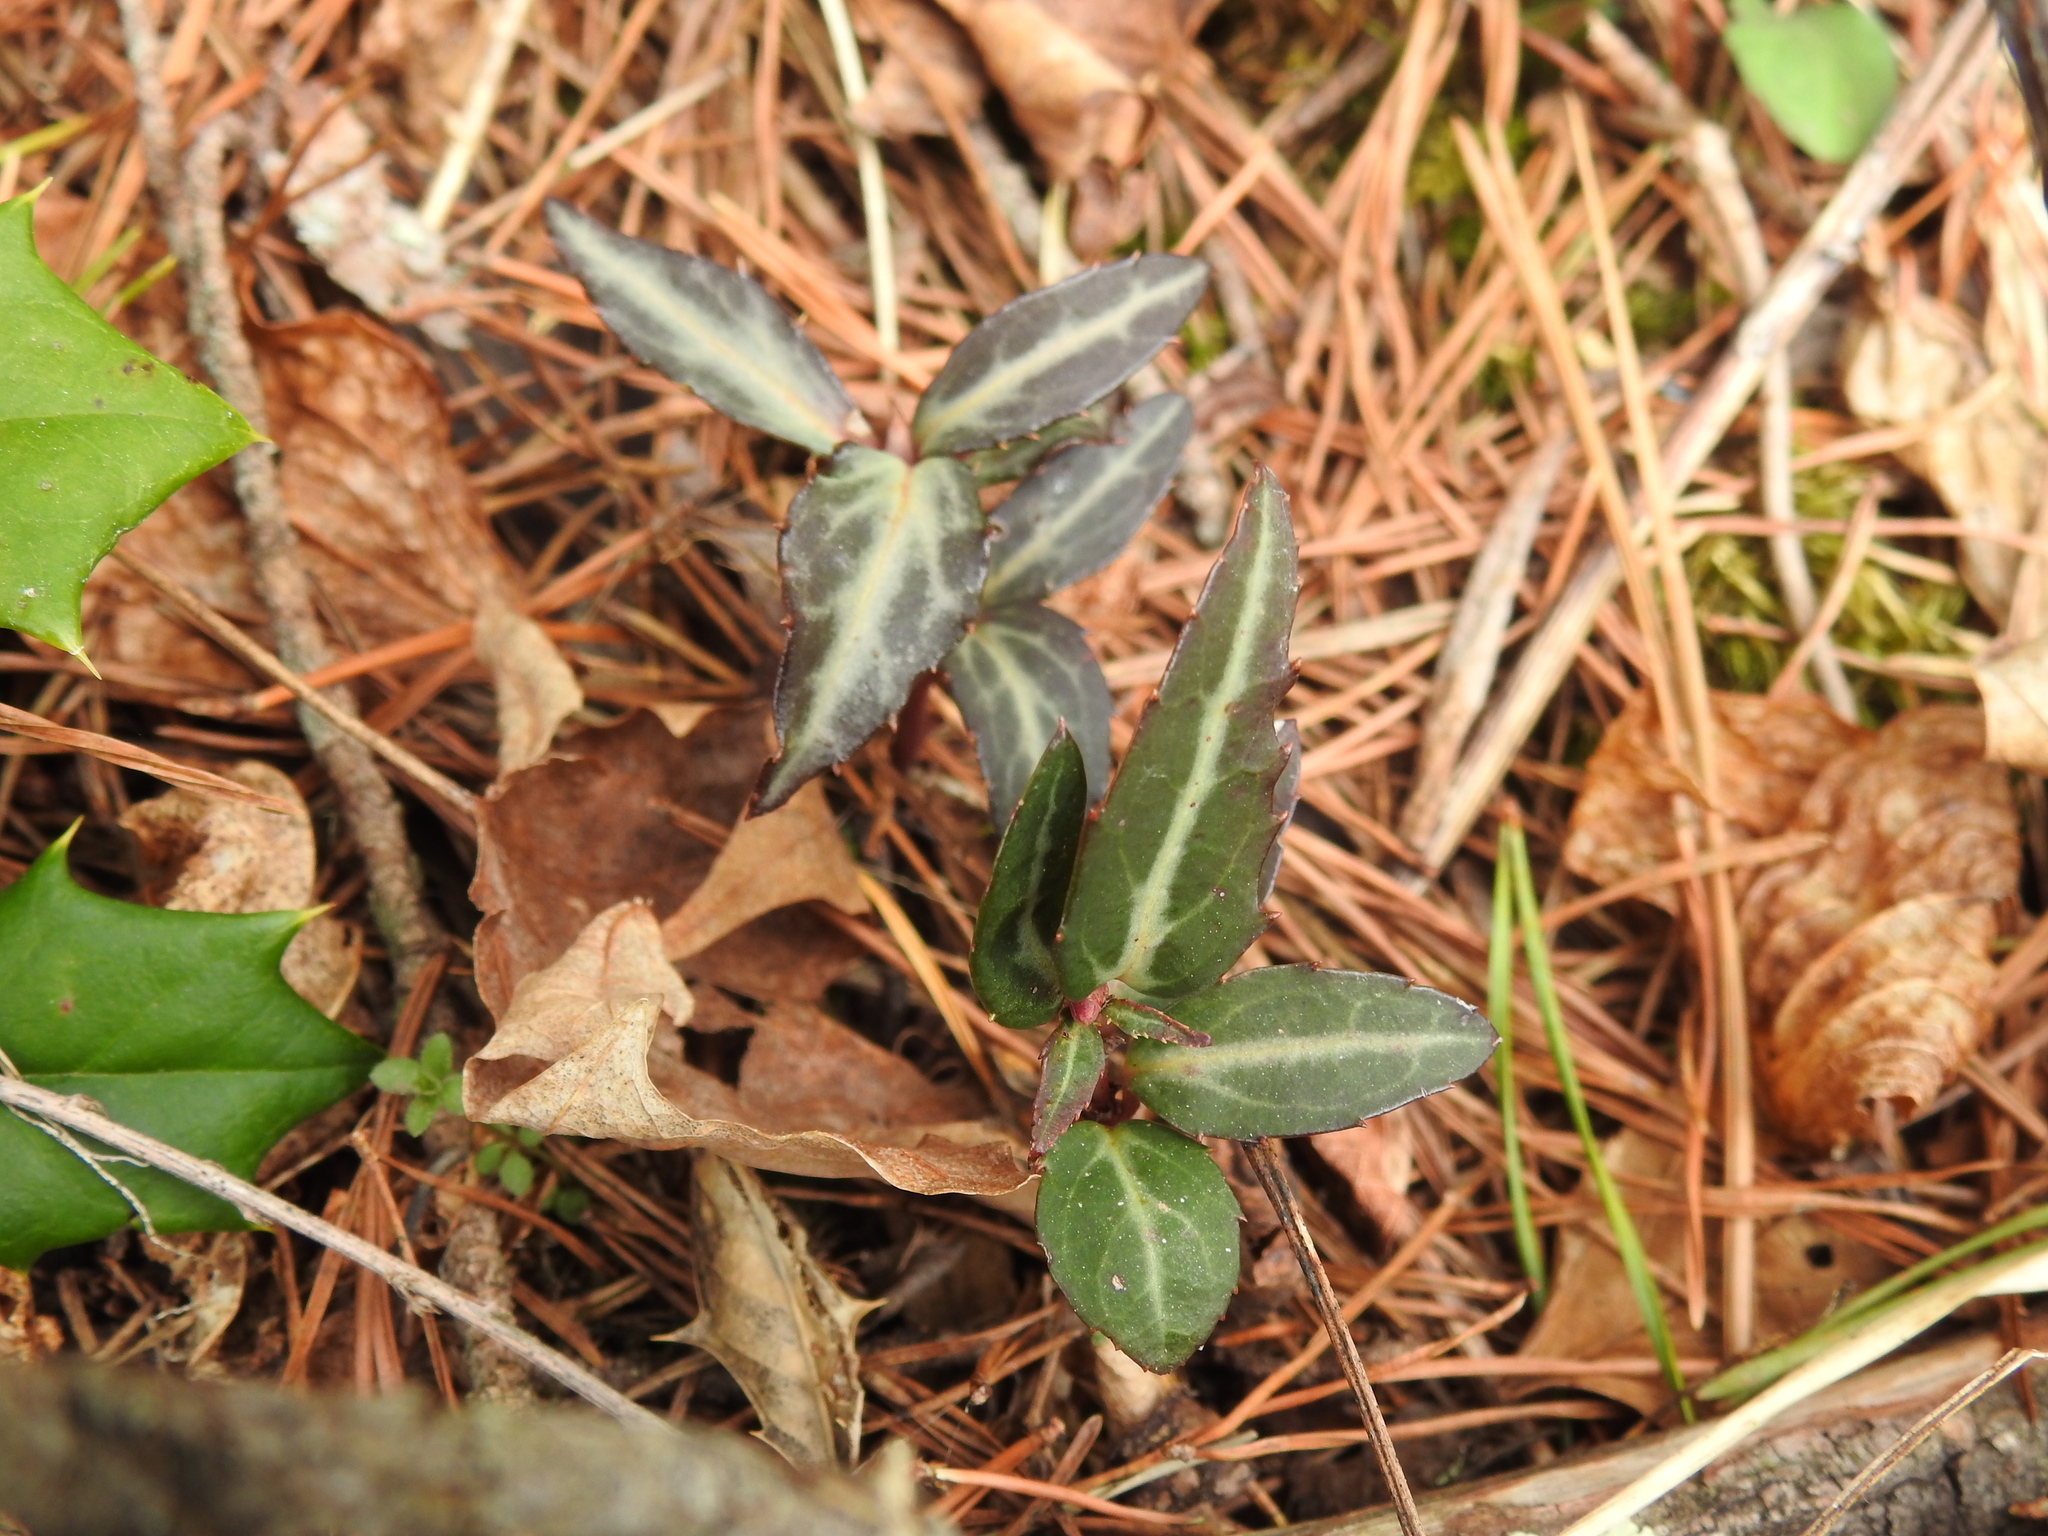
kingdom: Plantae
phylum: Tracheophyta
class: Magnoliopsida
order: Ericales
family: Ericaceae
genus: Chimaphila
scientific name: Chimaphila maculata
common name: Spotted pipsissewa
